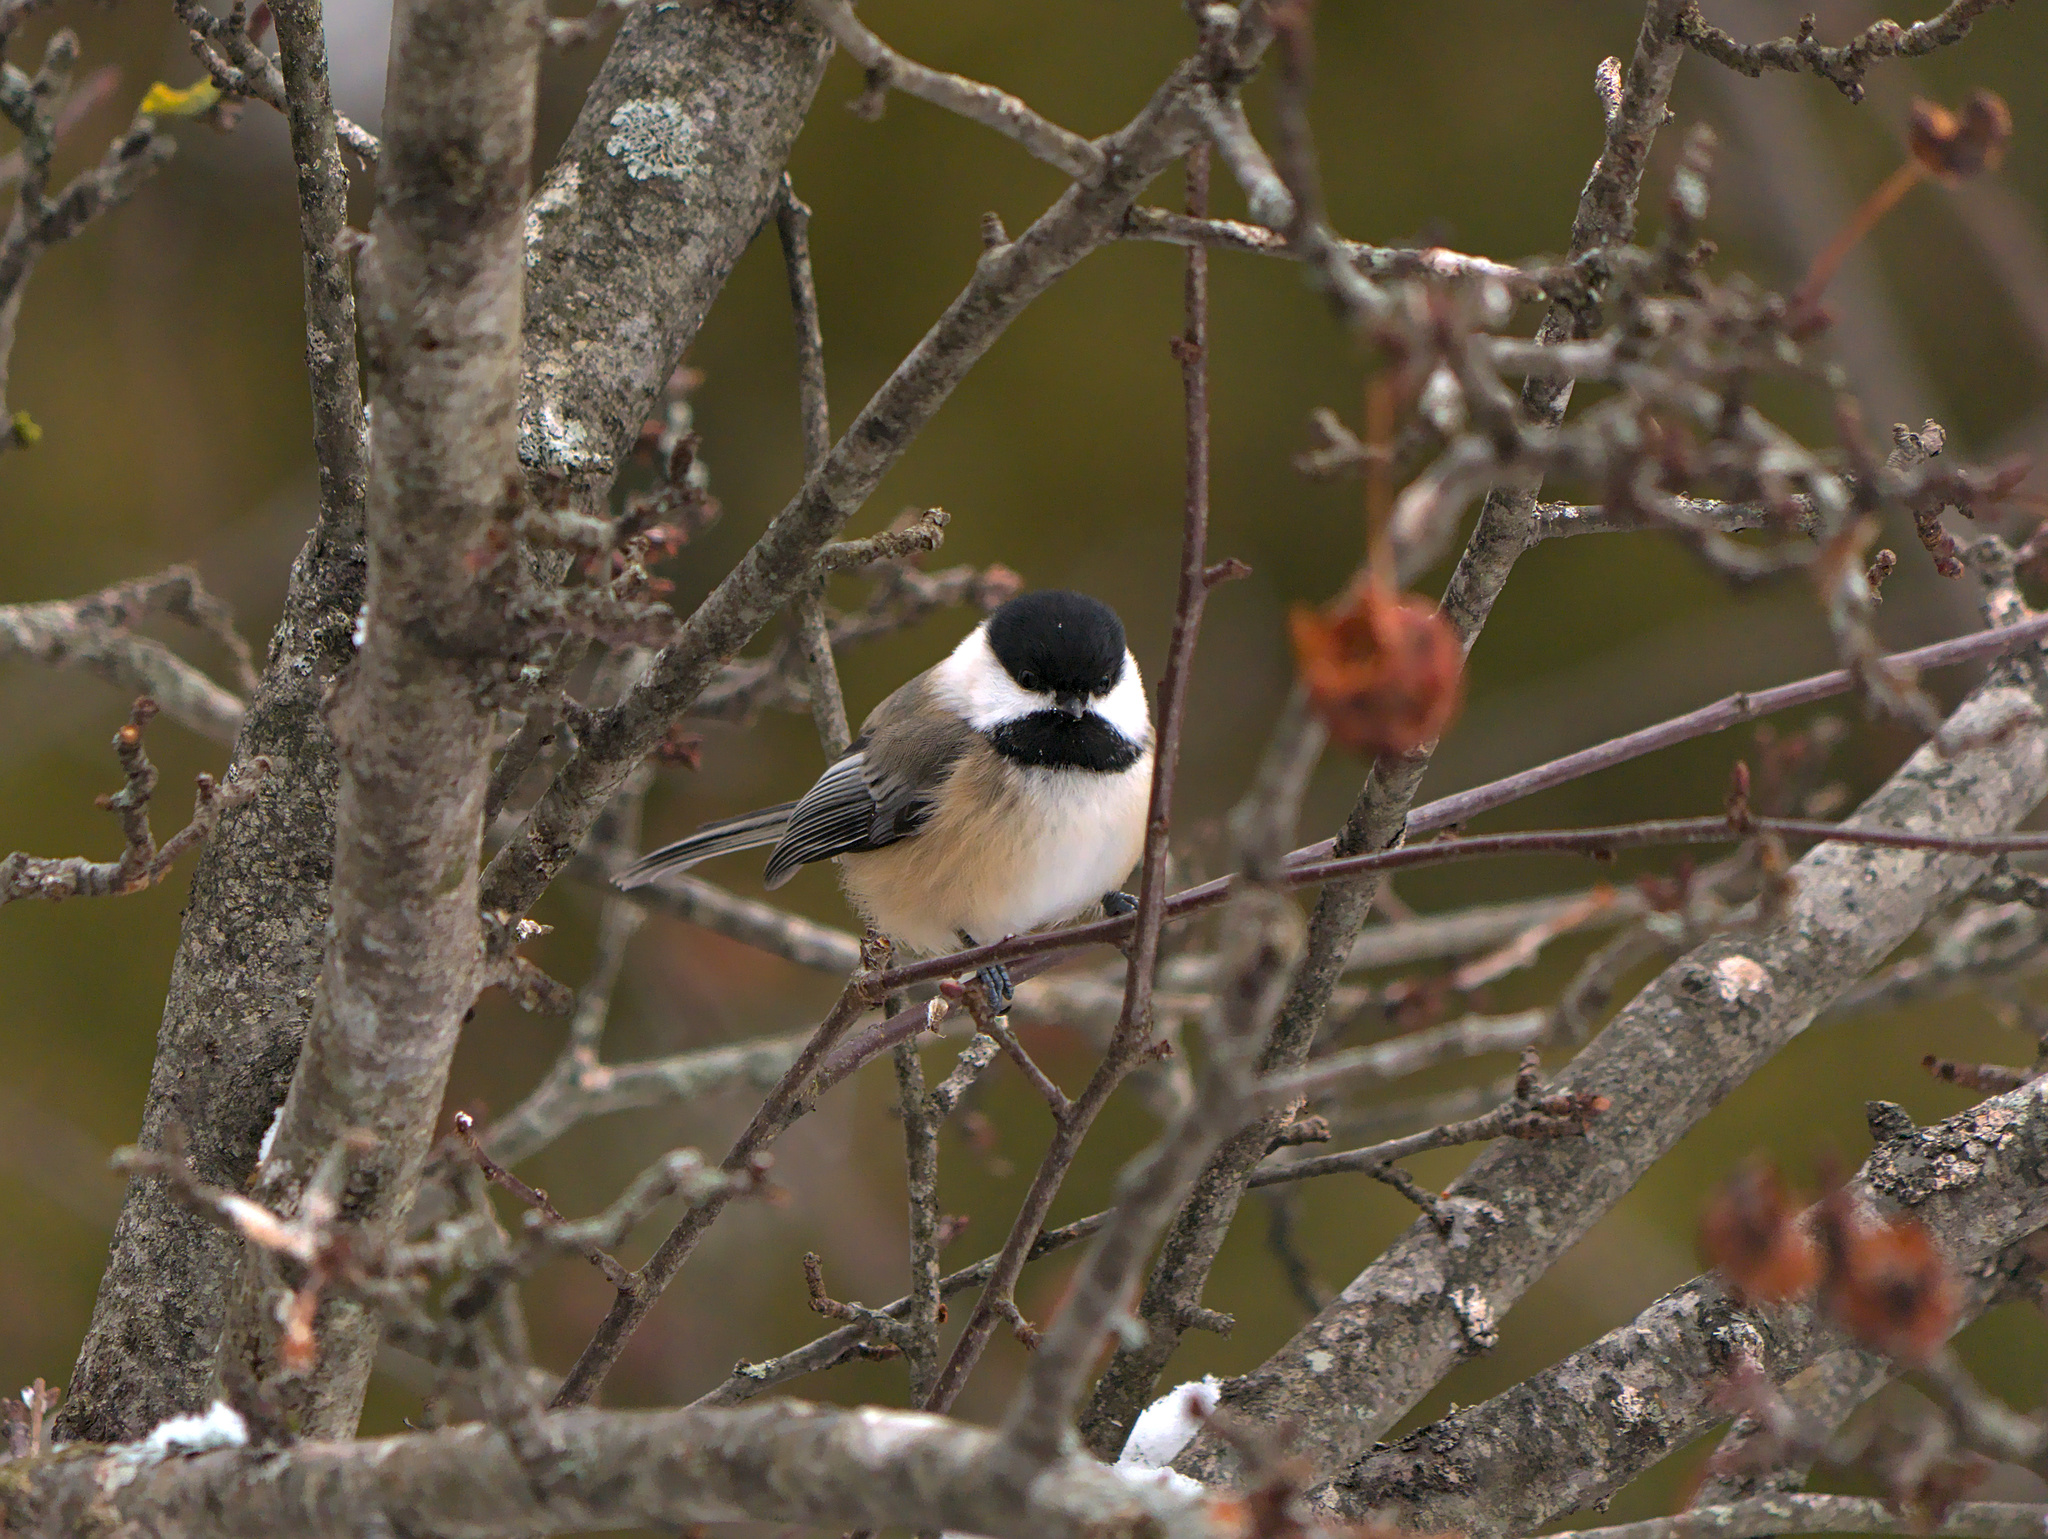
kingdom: Animalia
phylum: Chordata
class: Aves
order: Passeriformes
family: Paridae
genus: Poecile
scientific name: Poecile atricapillus
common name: Black-capped chickadee
